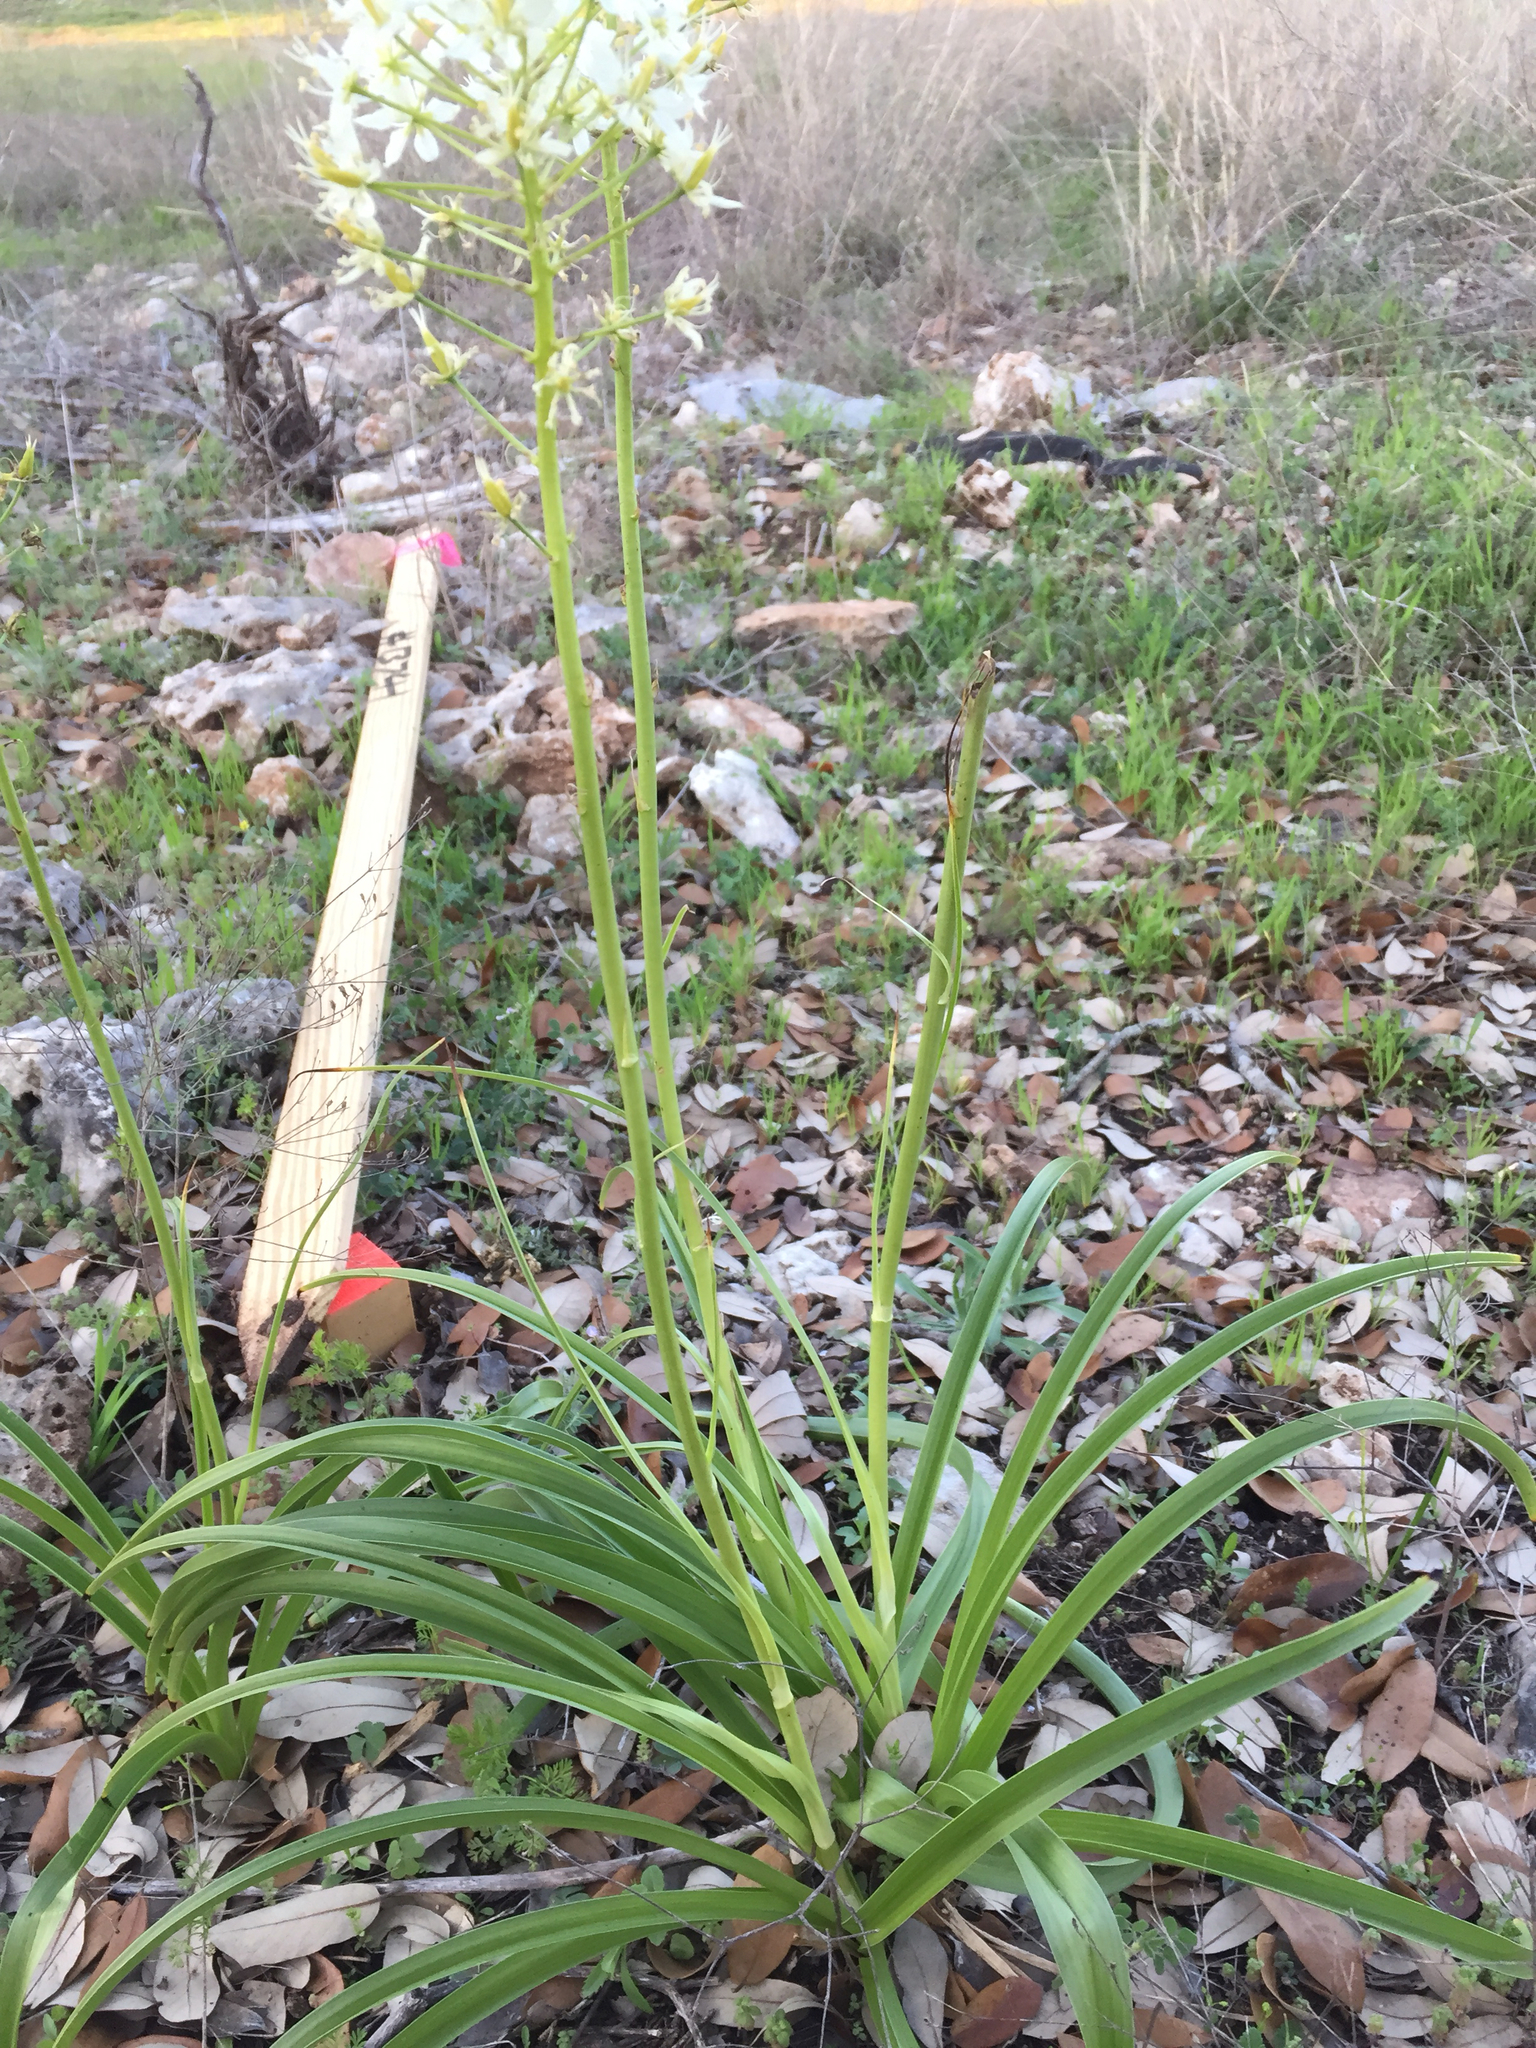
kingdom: Plantae
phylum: Tracheophyta
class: Liliopsida
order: Liliales
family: Melanthiaceae
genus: Toxicoscordion
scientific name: Toxicoscordion nuttallii
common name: Poison sego
